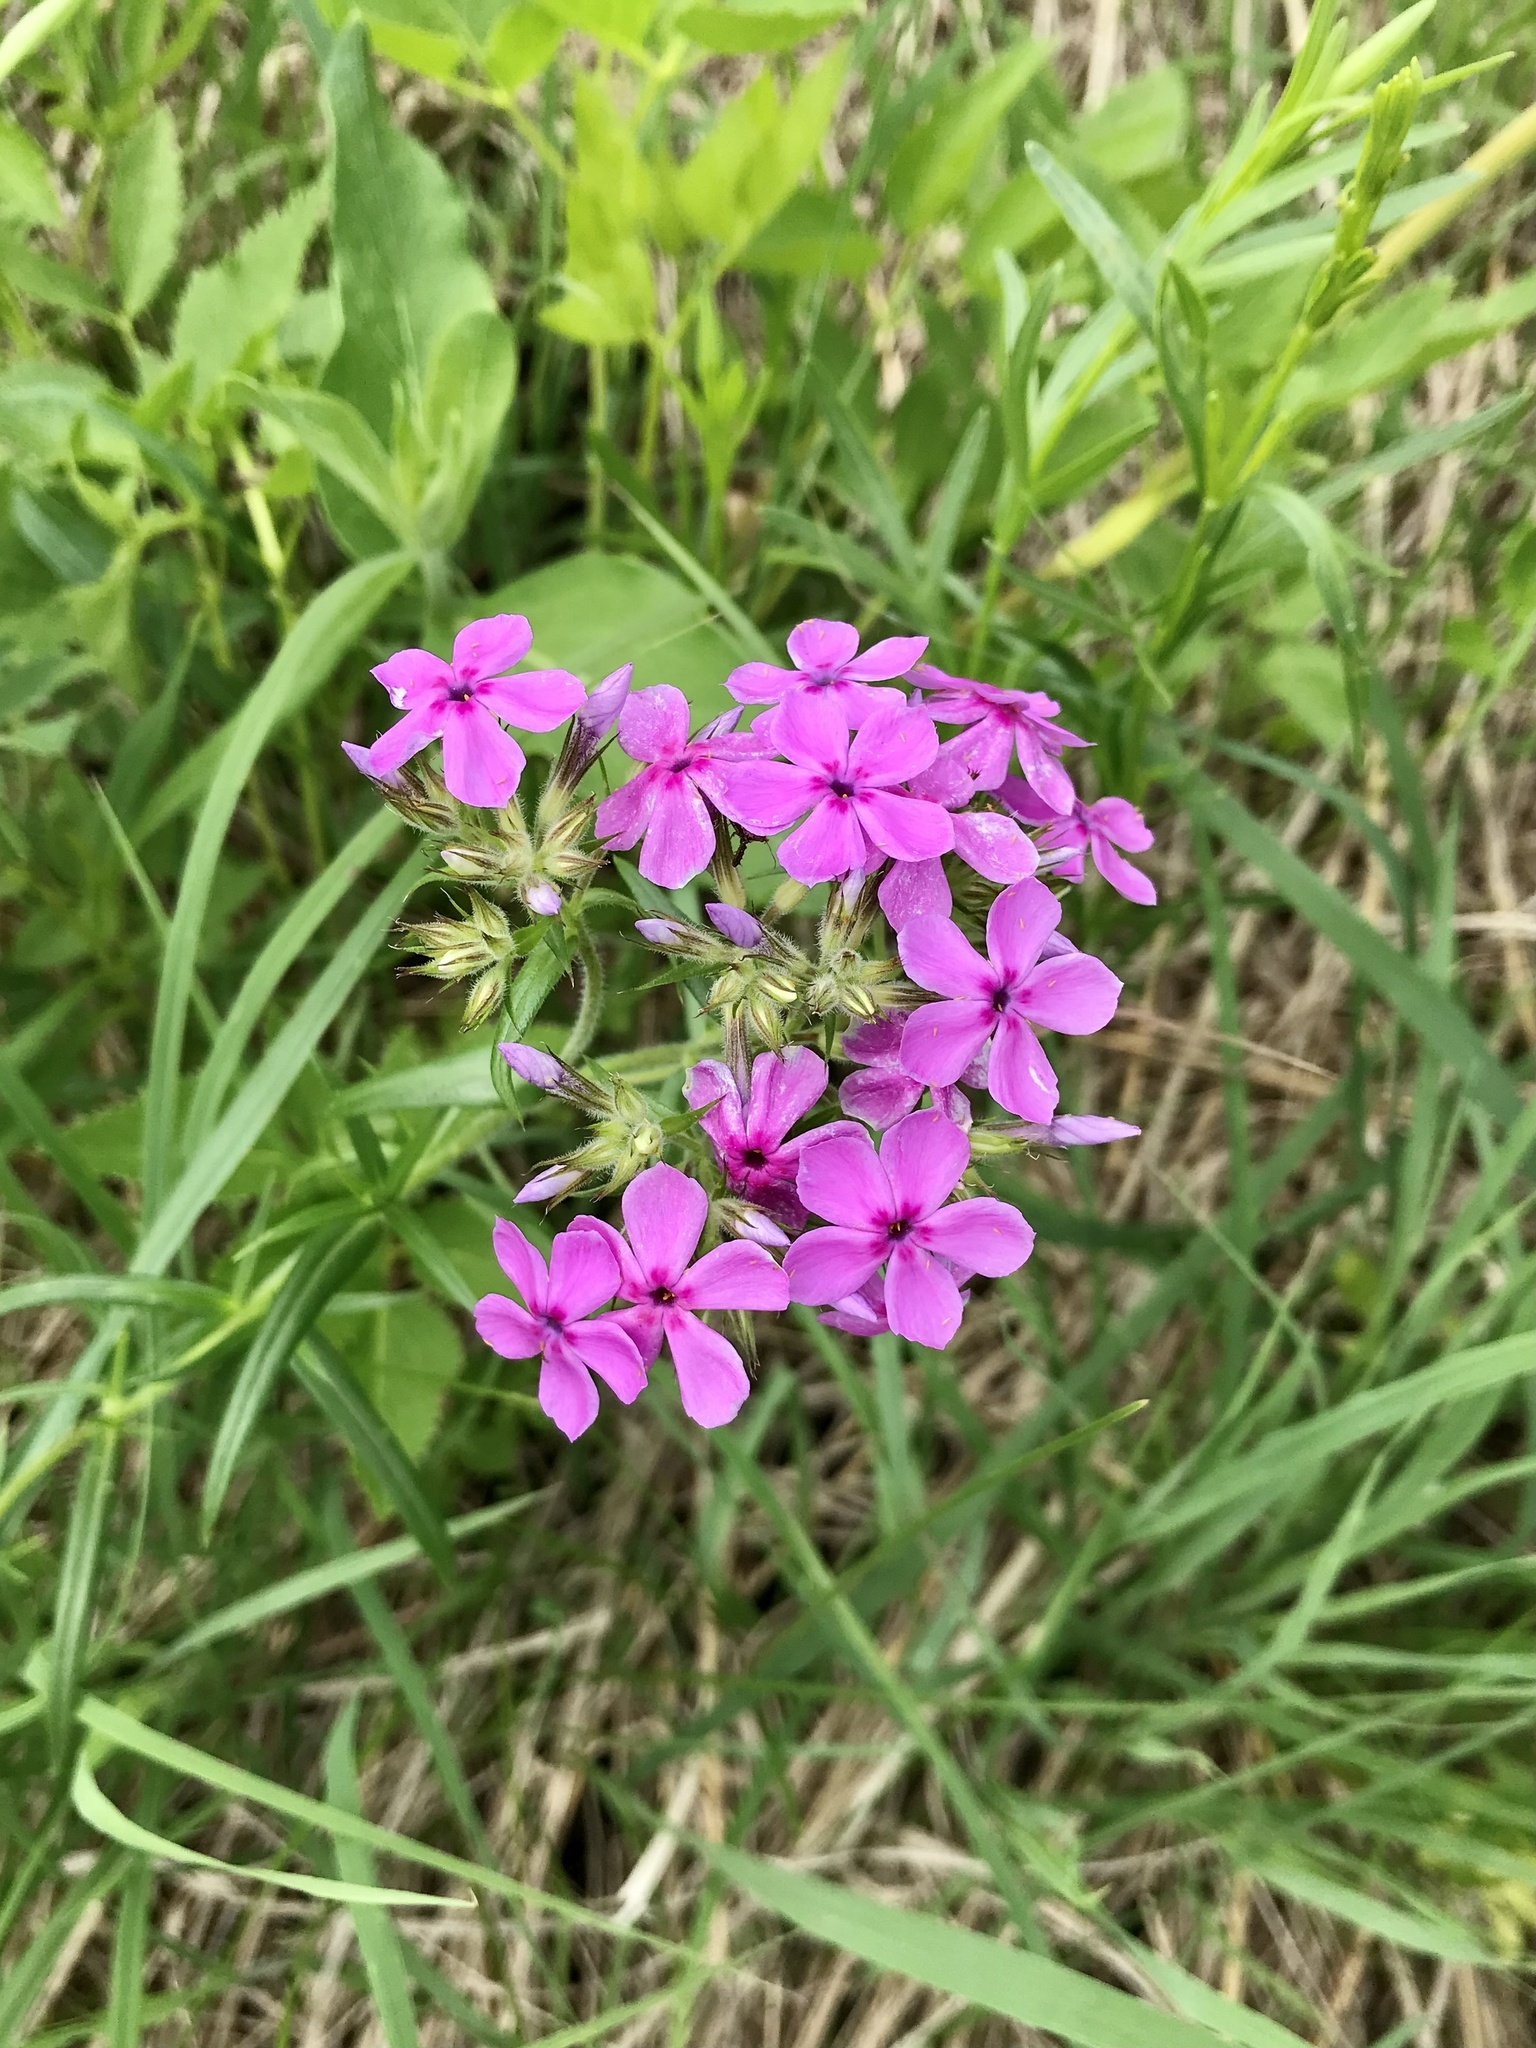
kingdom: Plantae
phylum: Tracheophyta
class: Magnoliopsida
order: Ericales
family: Polemoniaceae
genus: Phlox
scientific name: Phlox pilosa
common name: Prairie phlox
